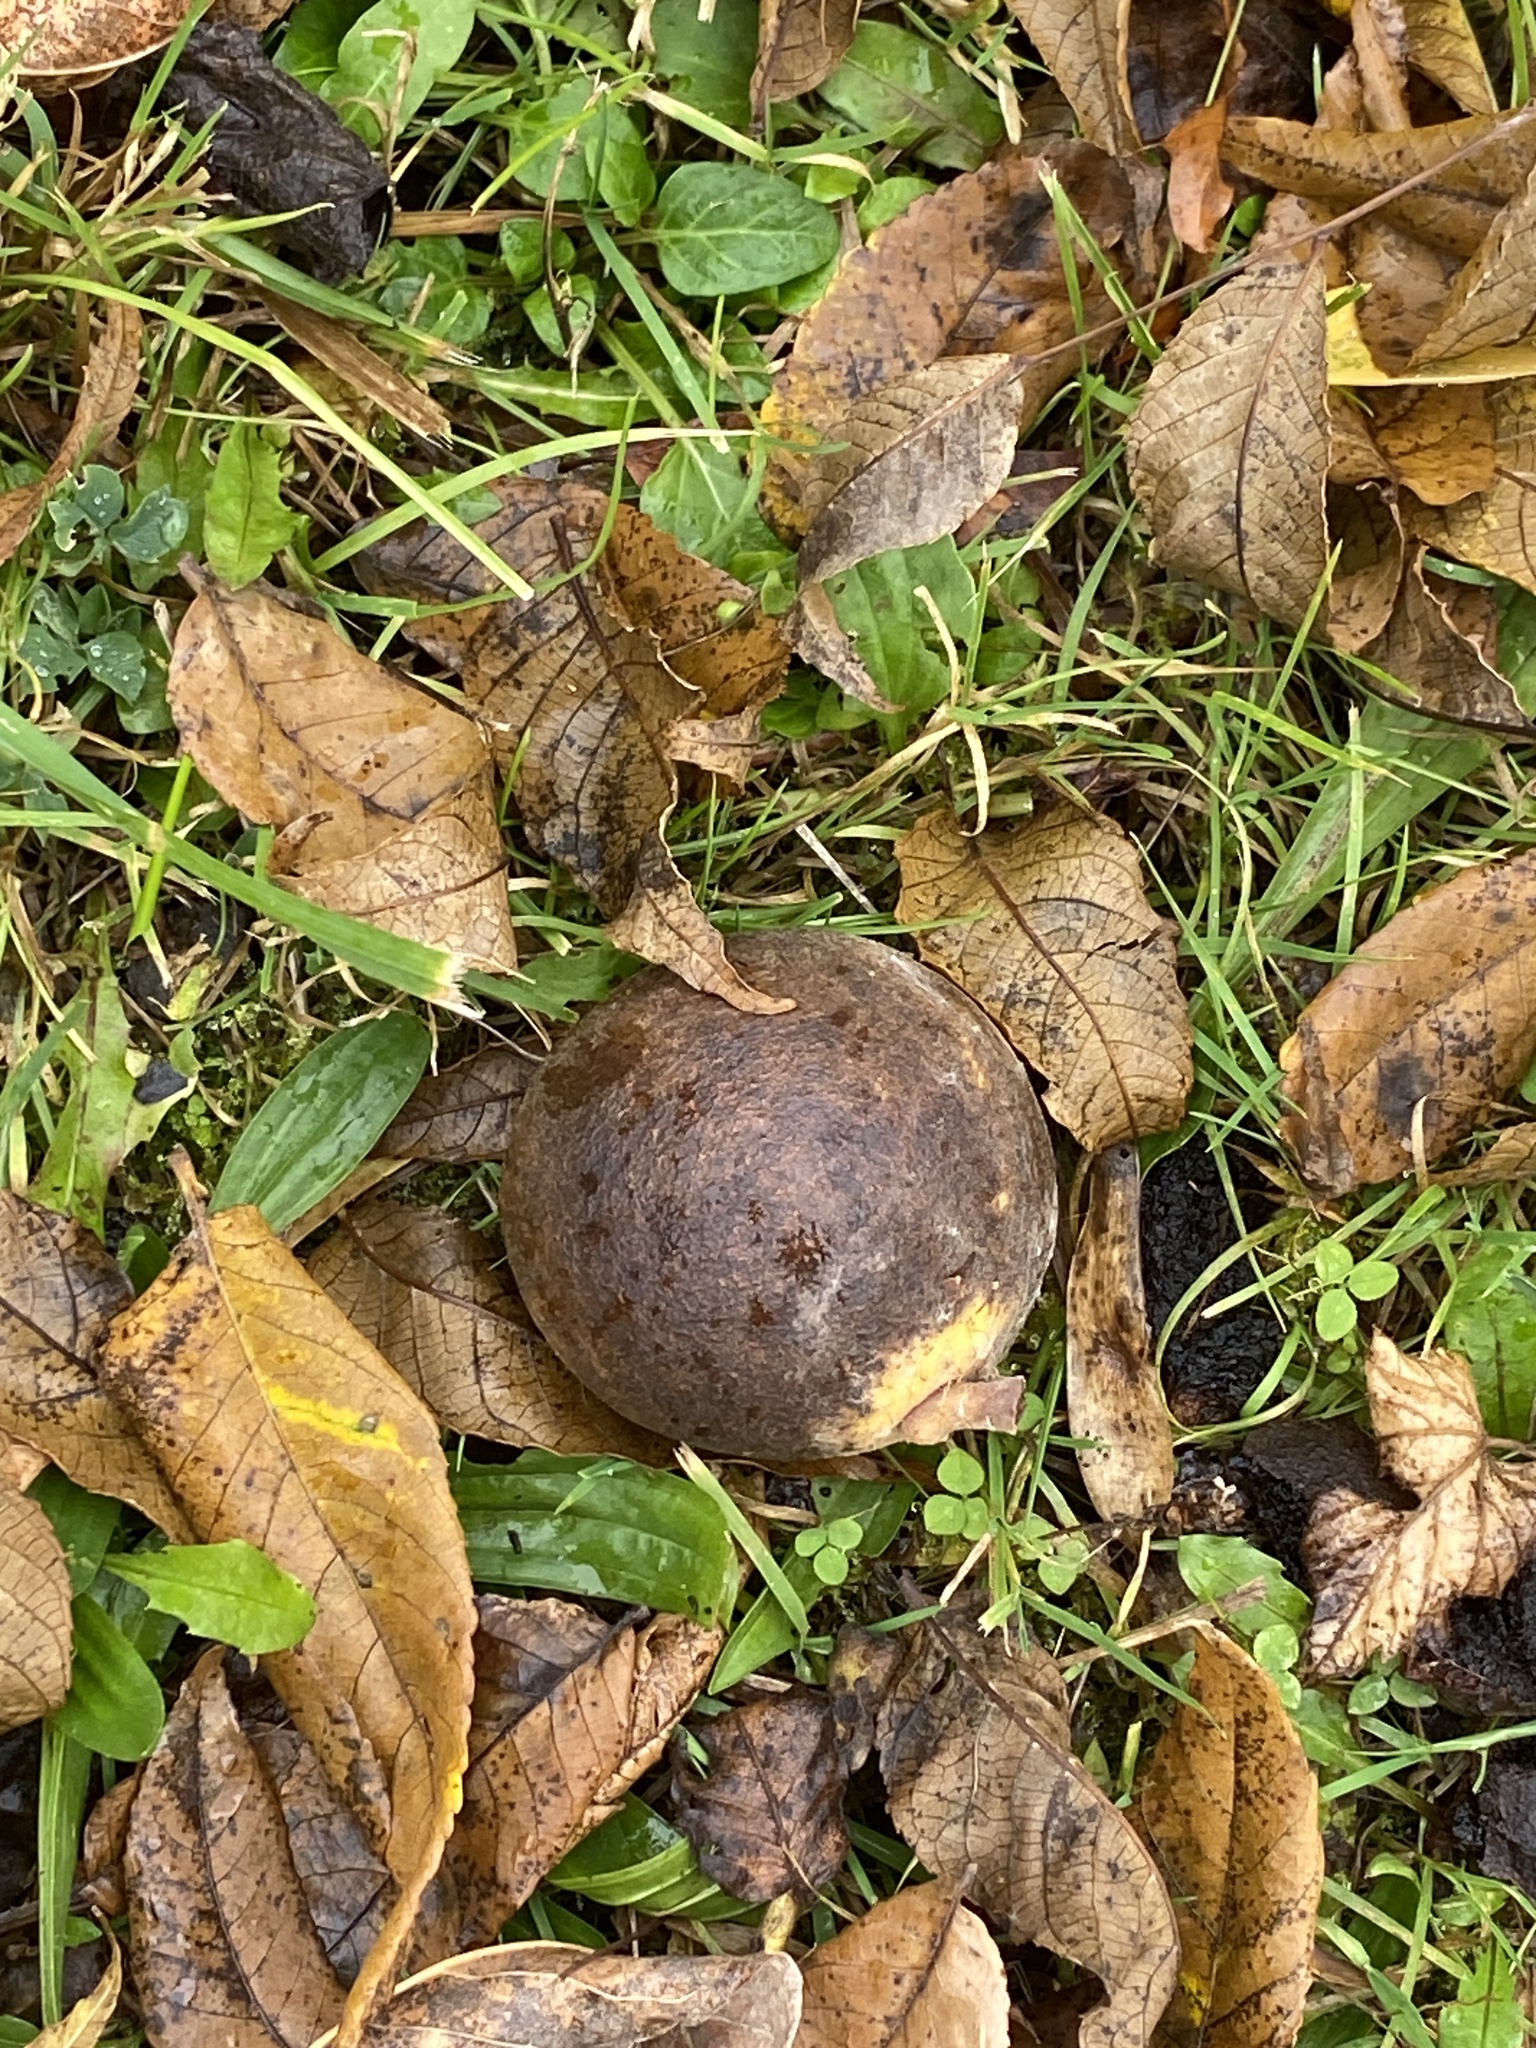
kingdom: Plantae
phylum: Tracheophyta
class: Magnoliopsida
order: Fagales
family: Juglandaceae
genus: Juglans
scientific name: Juglans nigra
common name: Black walnut
